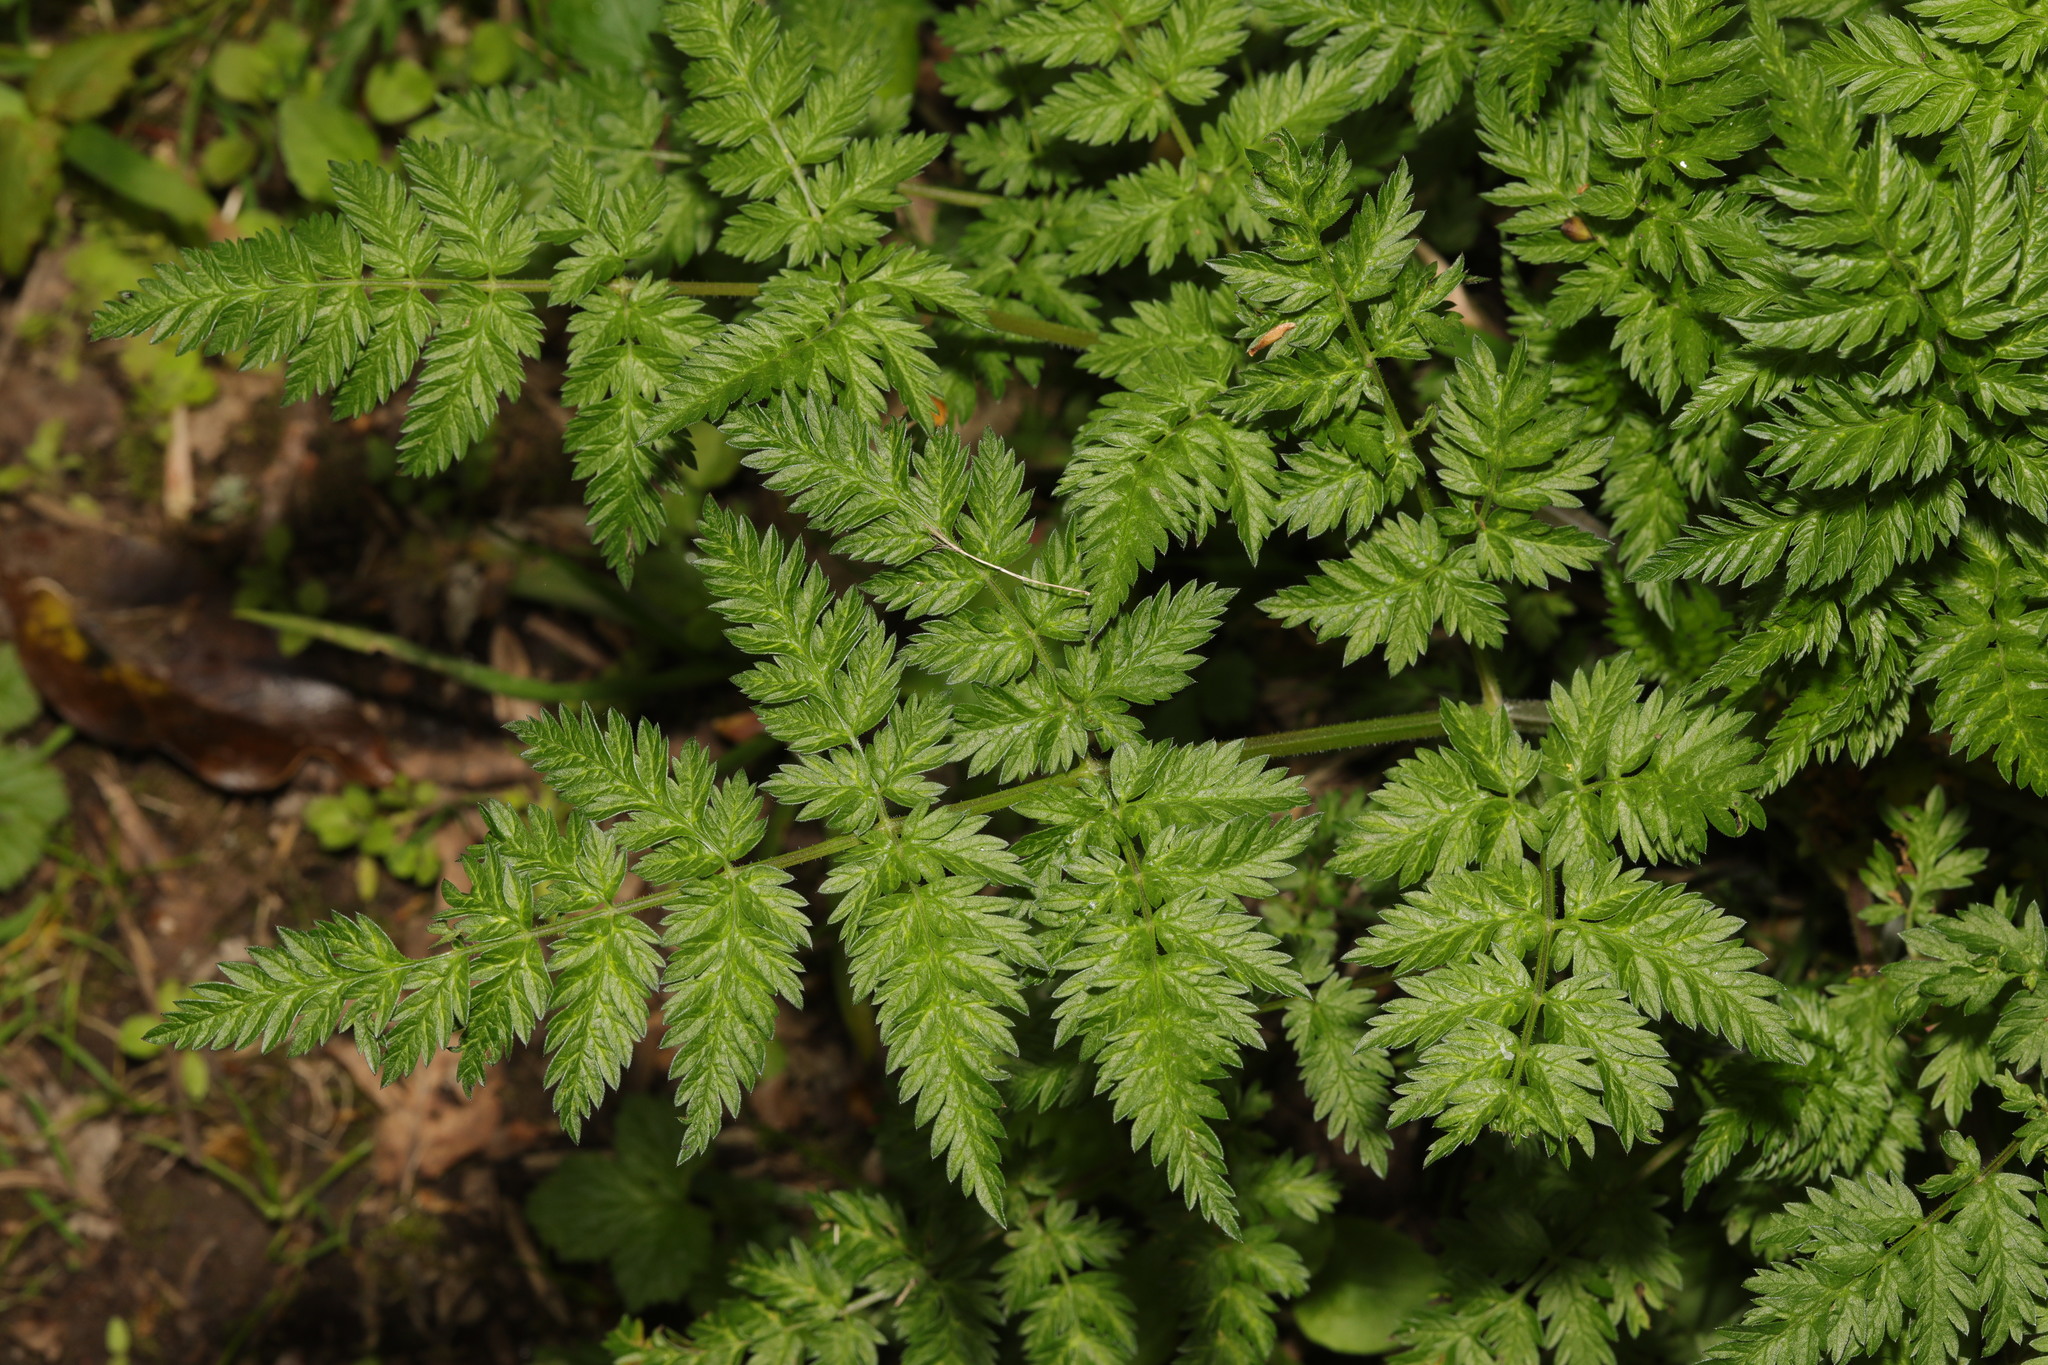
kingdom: Plantae
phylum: Tracheophyta
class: Magnoliopsida
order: Apiales
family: Apiaceae
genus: Anthriscus
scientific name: Anthriscus sylvestris
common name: Cow parsley
